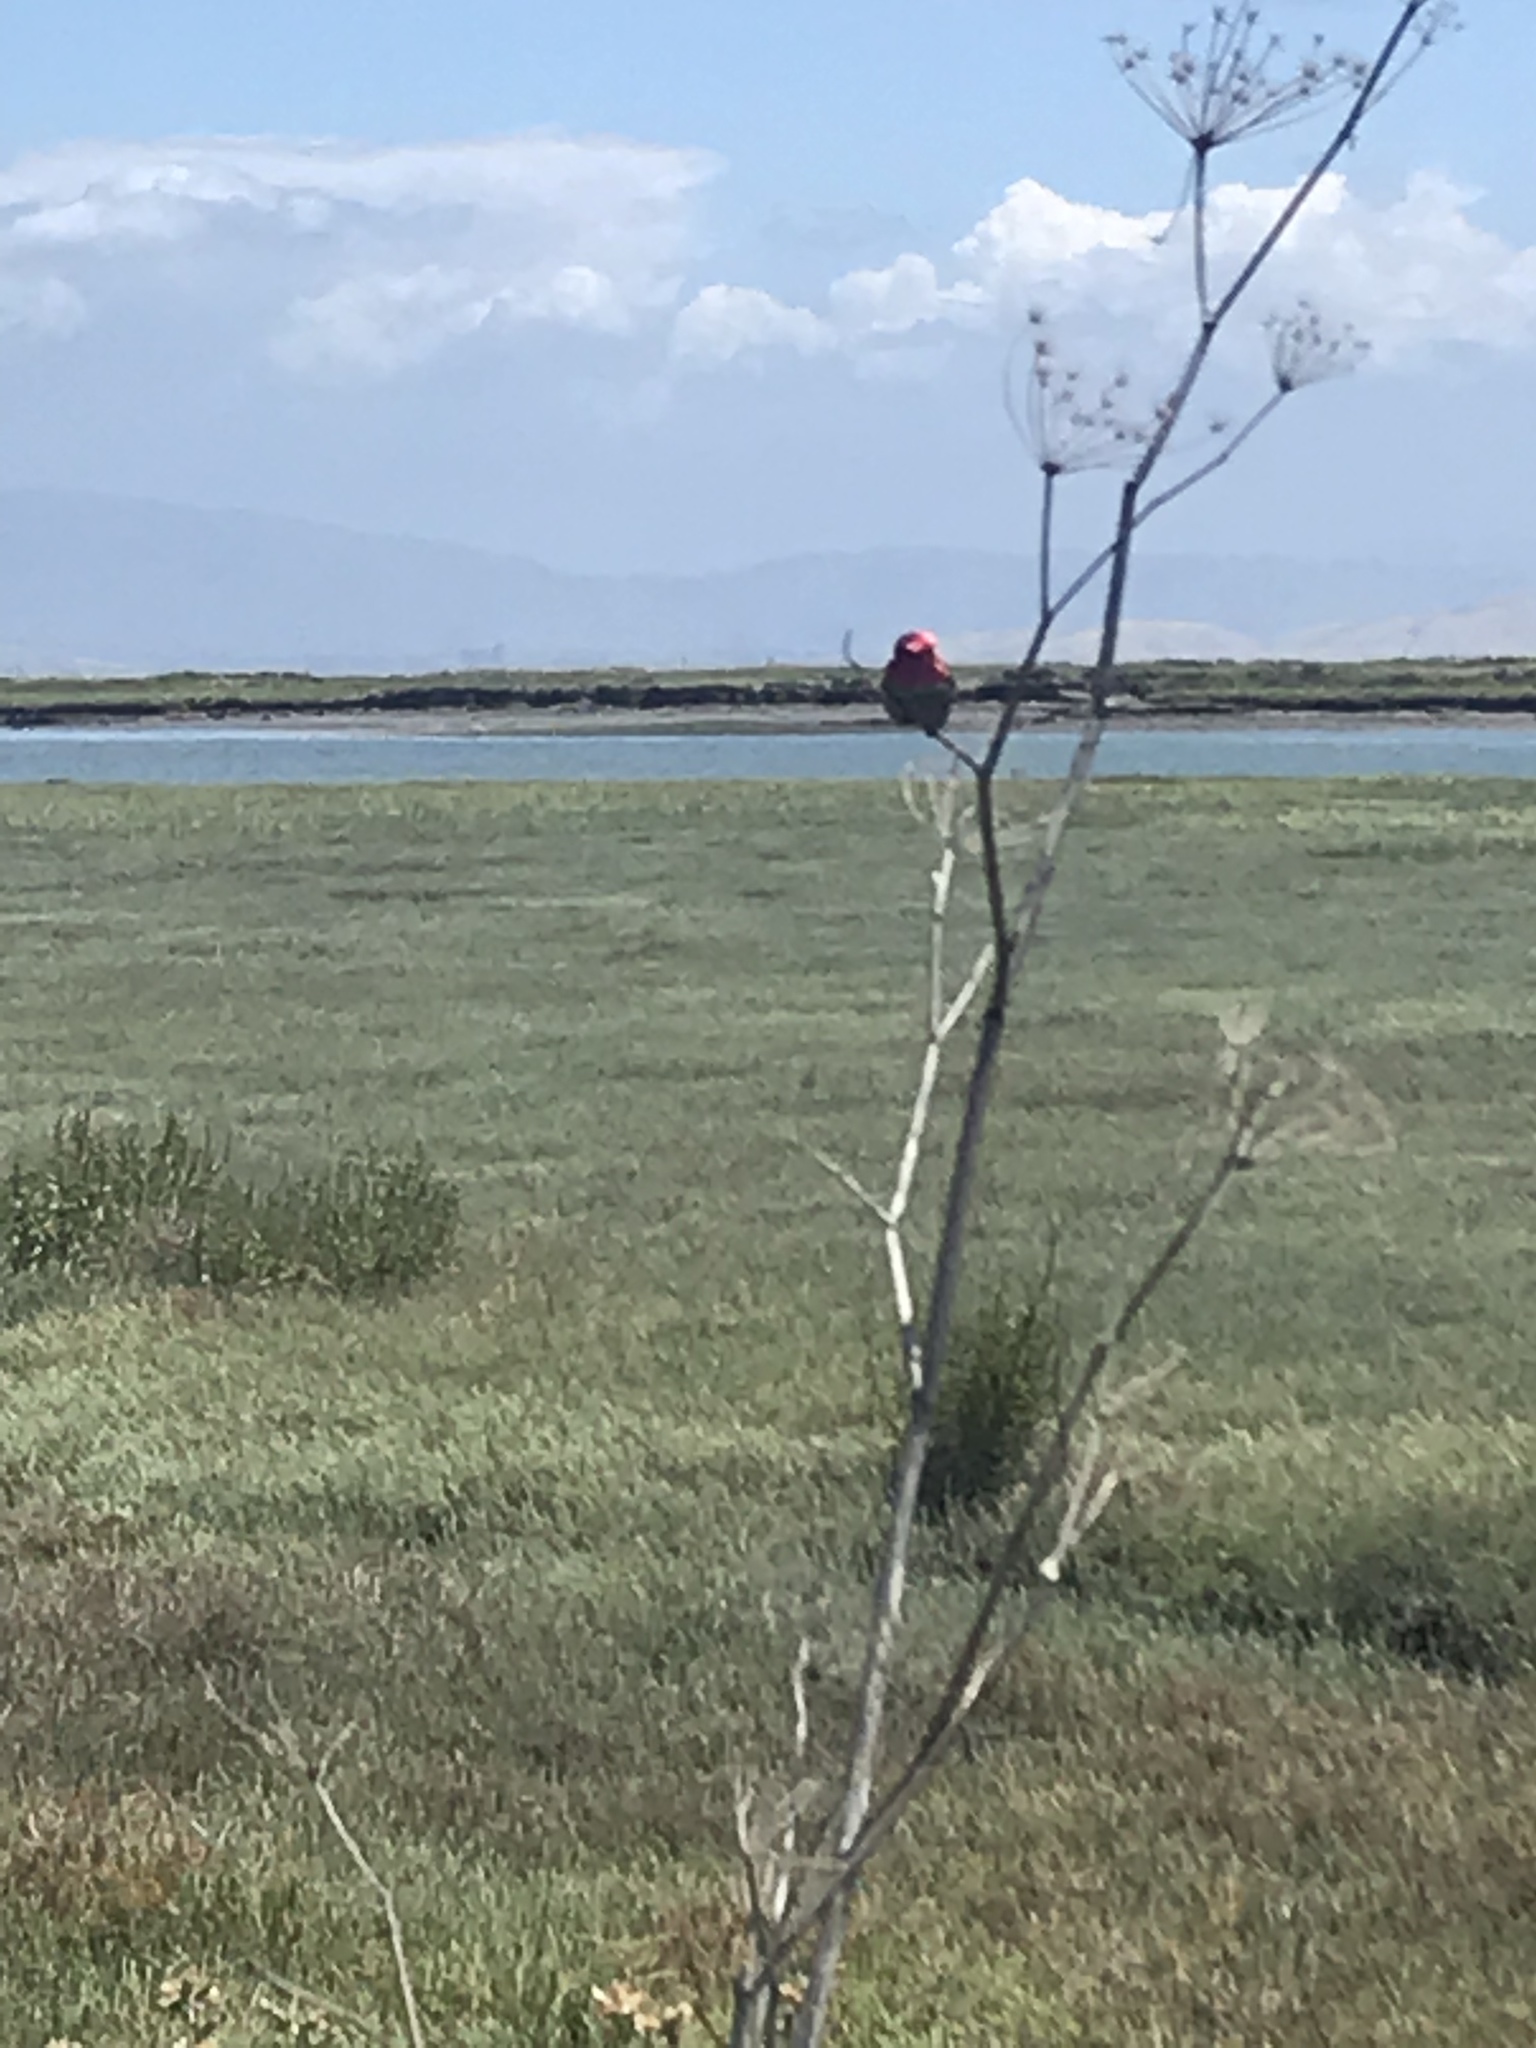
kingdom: Animalia
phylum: Chordata
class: Aves
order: Apodiformes
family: Trochilidae
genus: Calypte
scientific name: Calypte anna
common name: Anna's hummingbird
